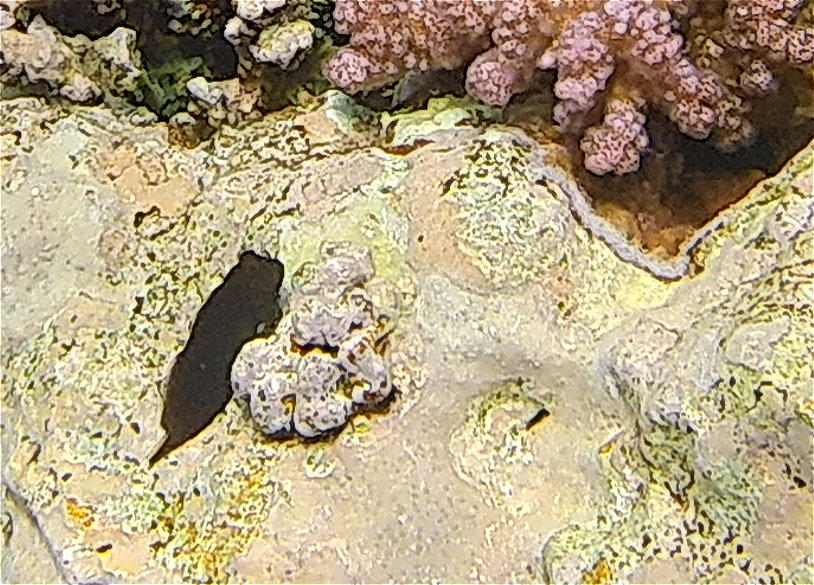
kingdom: Animalia
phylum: Chordata
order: Perciformes
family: Blenniidae
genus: Cirripectes
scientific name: Cirripectes castaneus
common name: Chestnut blenny
